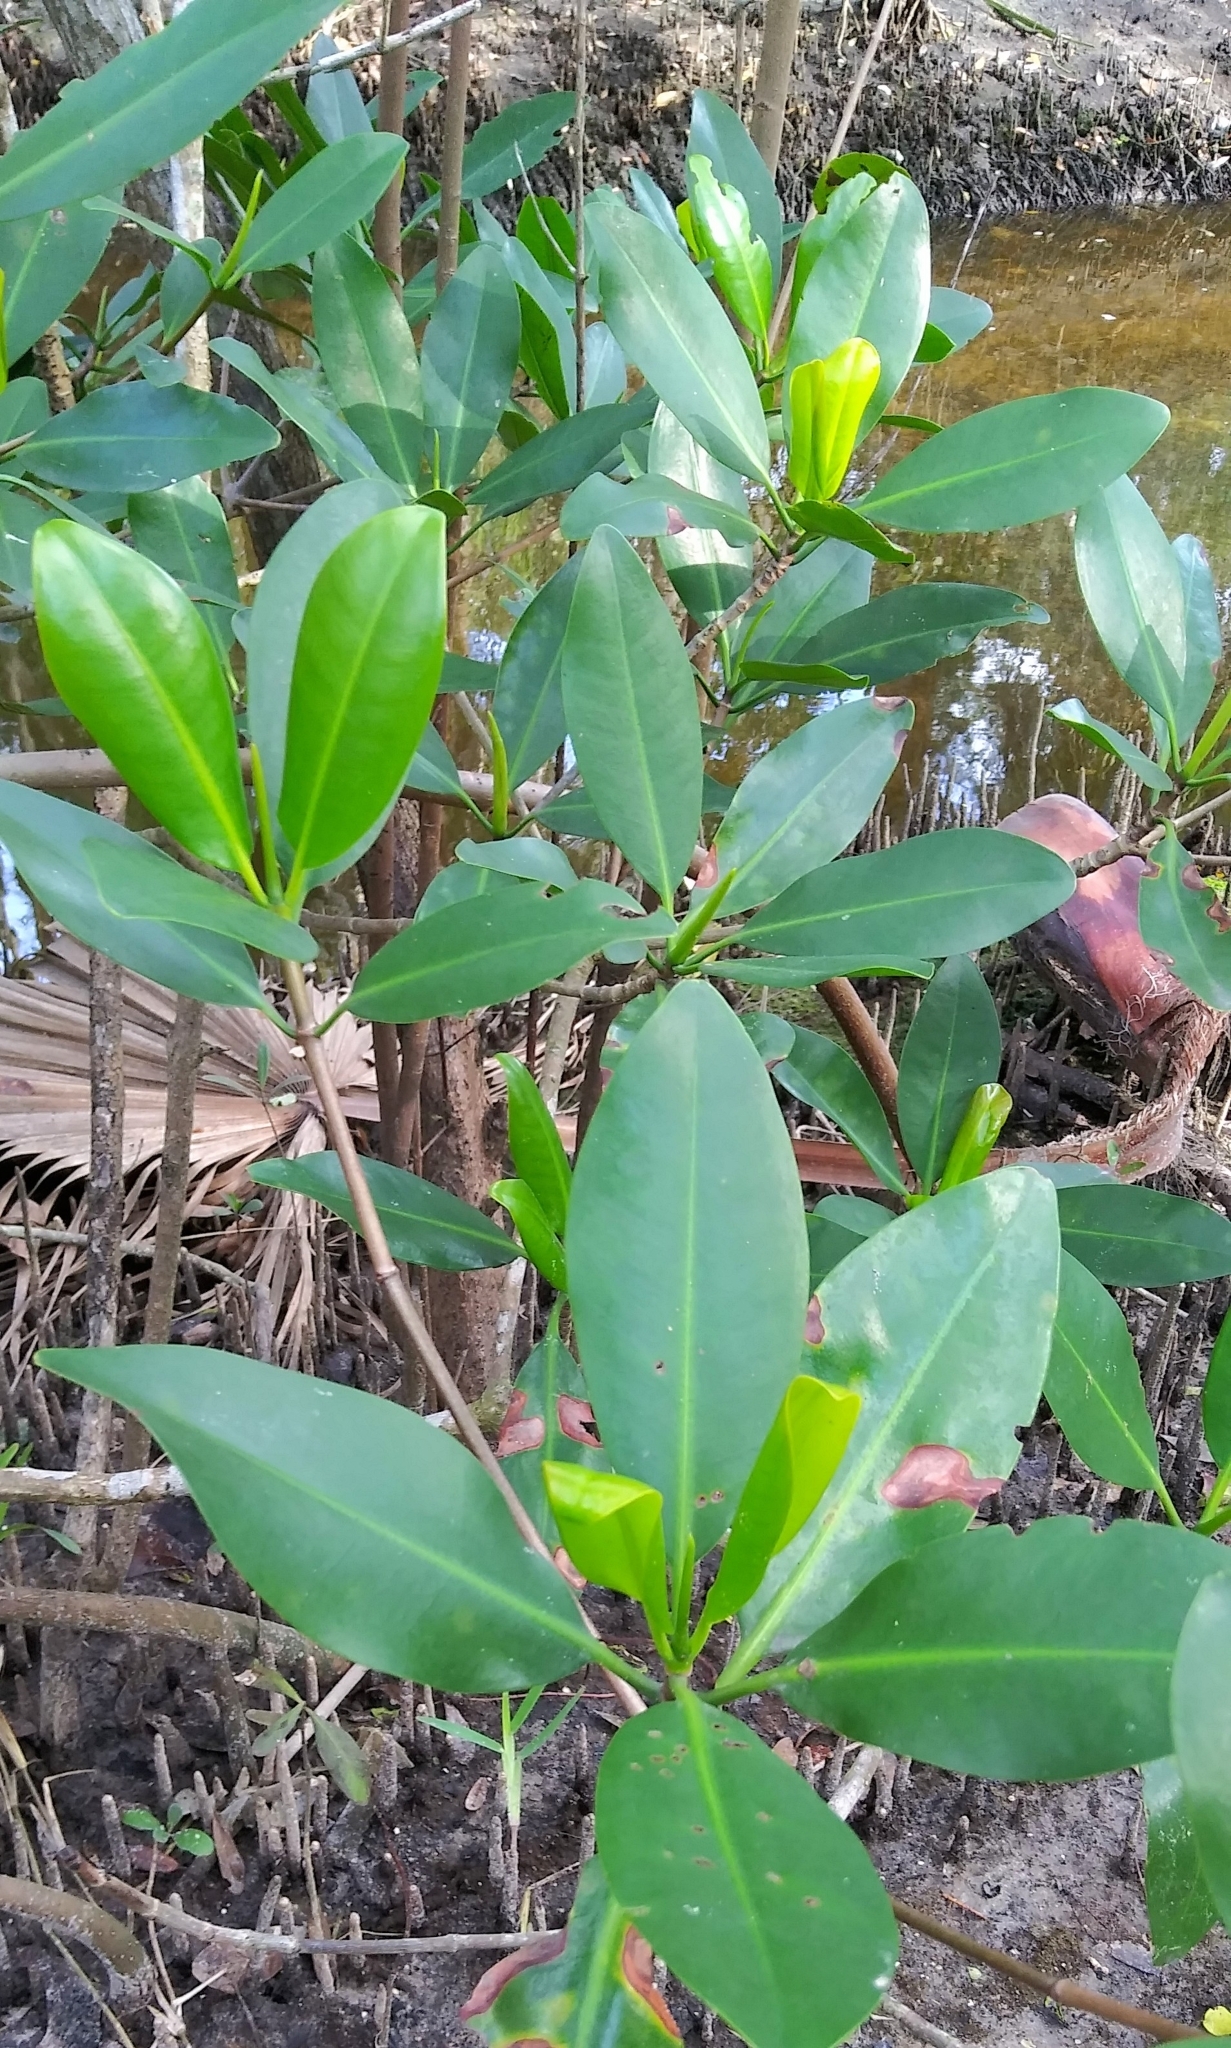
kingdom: Plantae
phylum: Tracheophyta
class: Magnoliopsida
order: Malpighiales
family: Rhizophoraceae
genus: Rhizophora
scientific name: Rhizophora mangle
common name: Red mangrove
